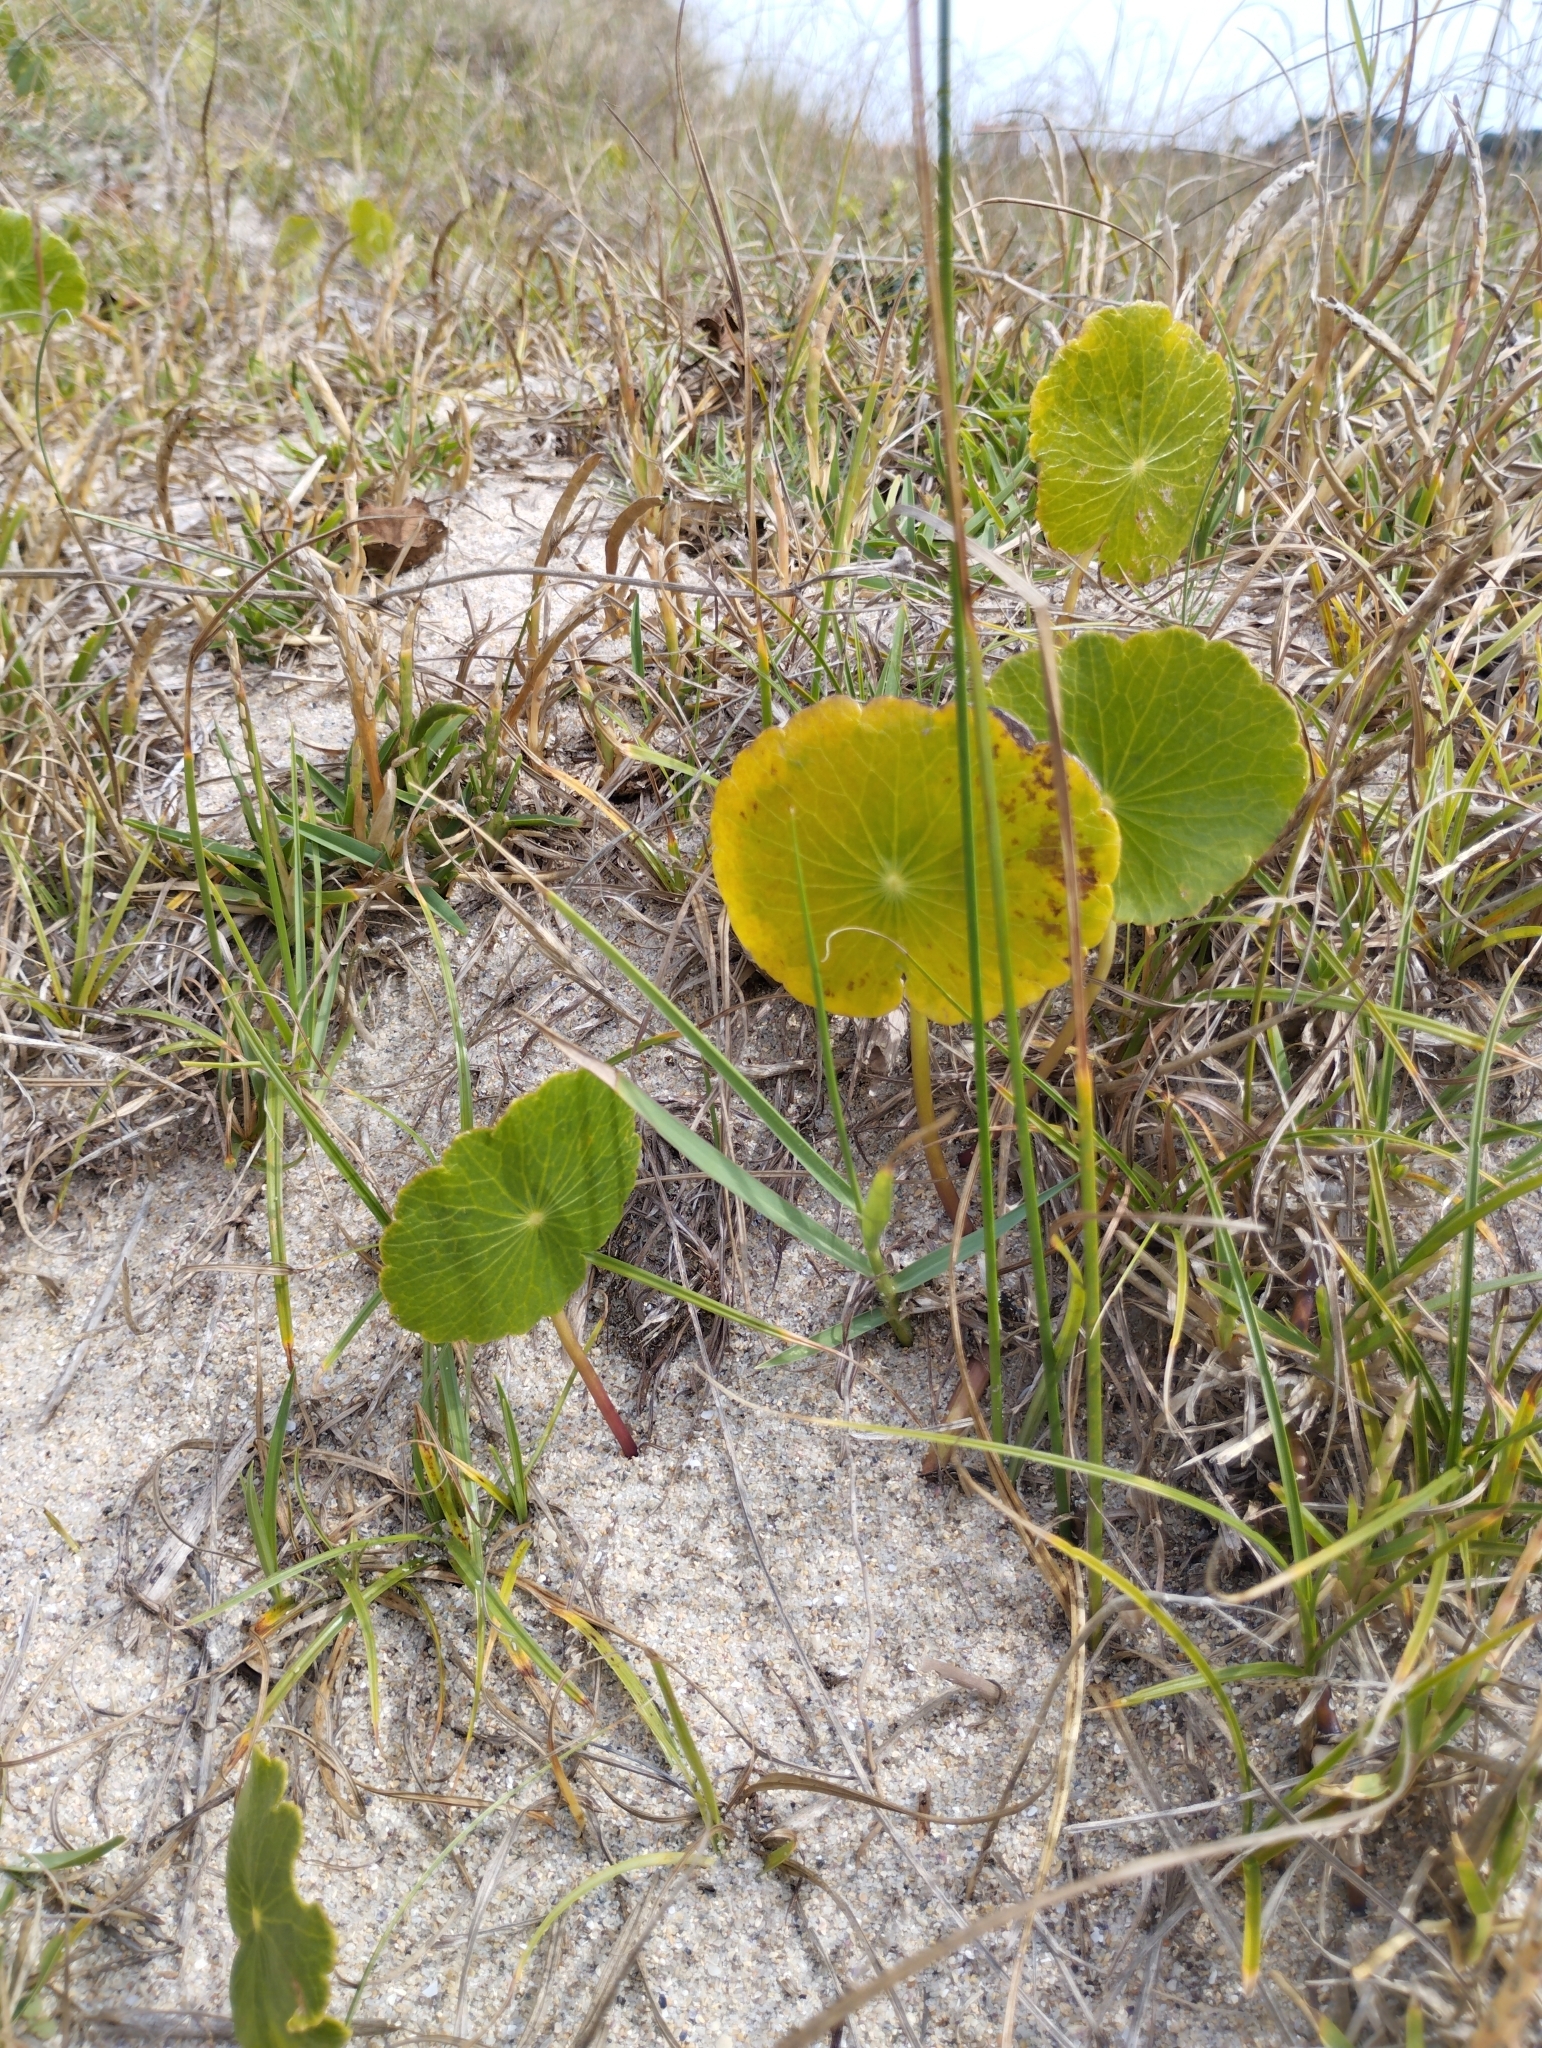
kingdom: Plantae
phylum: Tracheophyta
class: Magnoliopsida
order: Apiales
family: Araliaceae
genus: Hydrocotyle
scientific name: Hydrocotyle bonariensis
